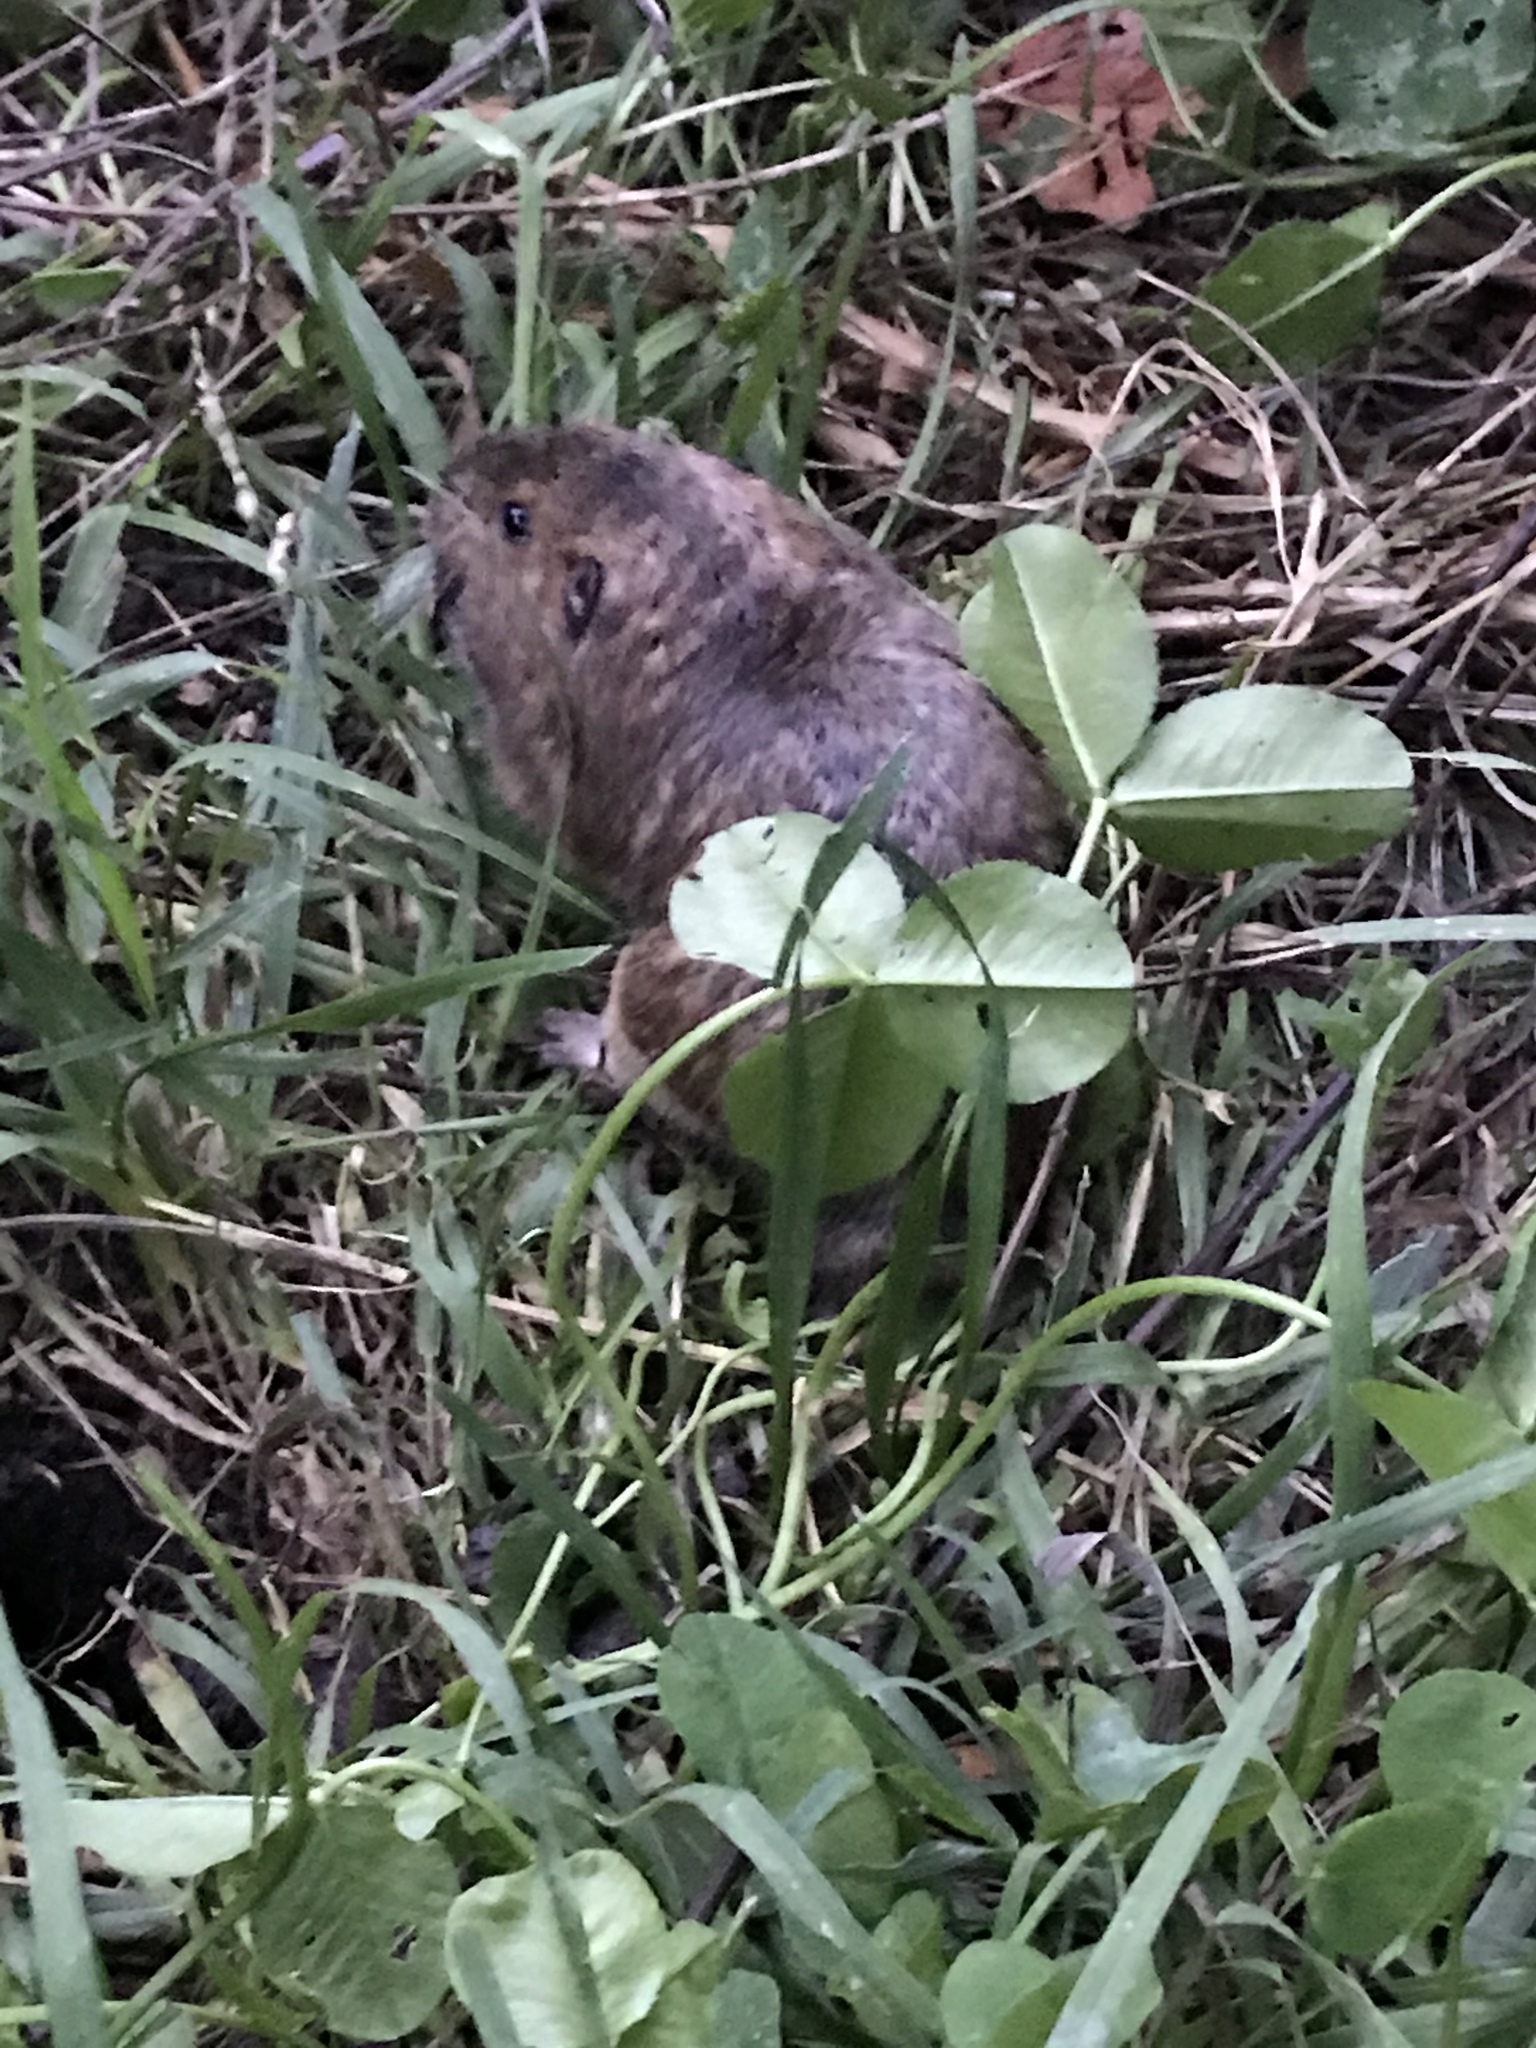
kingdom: Animalia
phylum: Chordata
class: Mammalia
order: Rodentia
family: Geomyidae
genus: Thomomys
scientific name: Thomomys bottae
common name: Botta's pocket gopher
